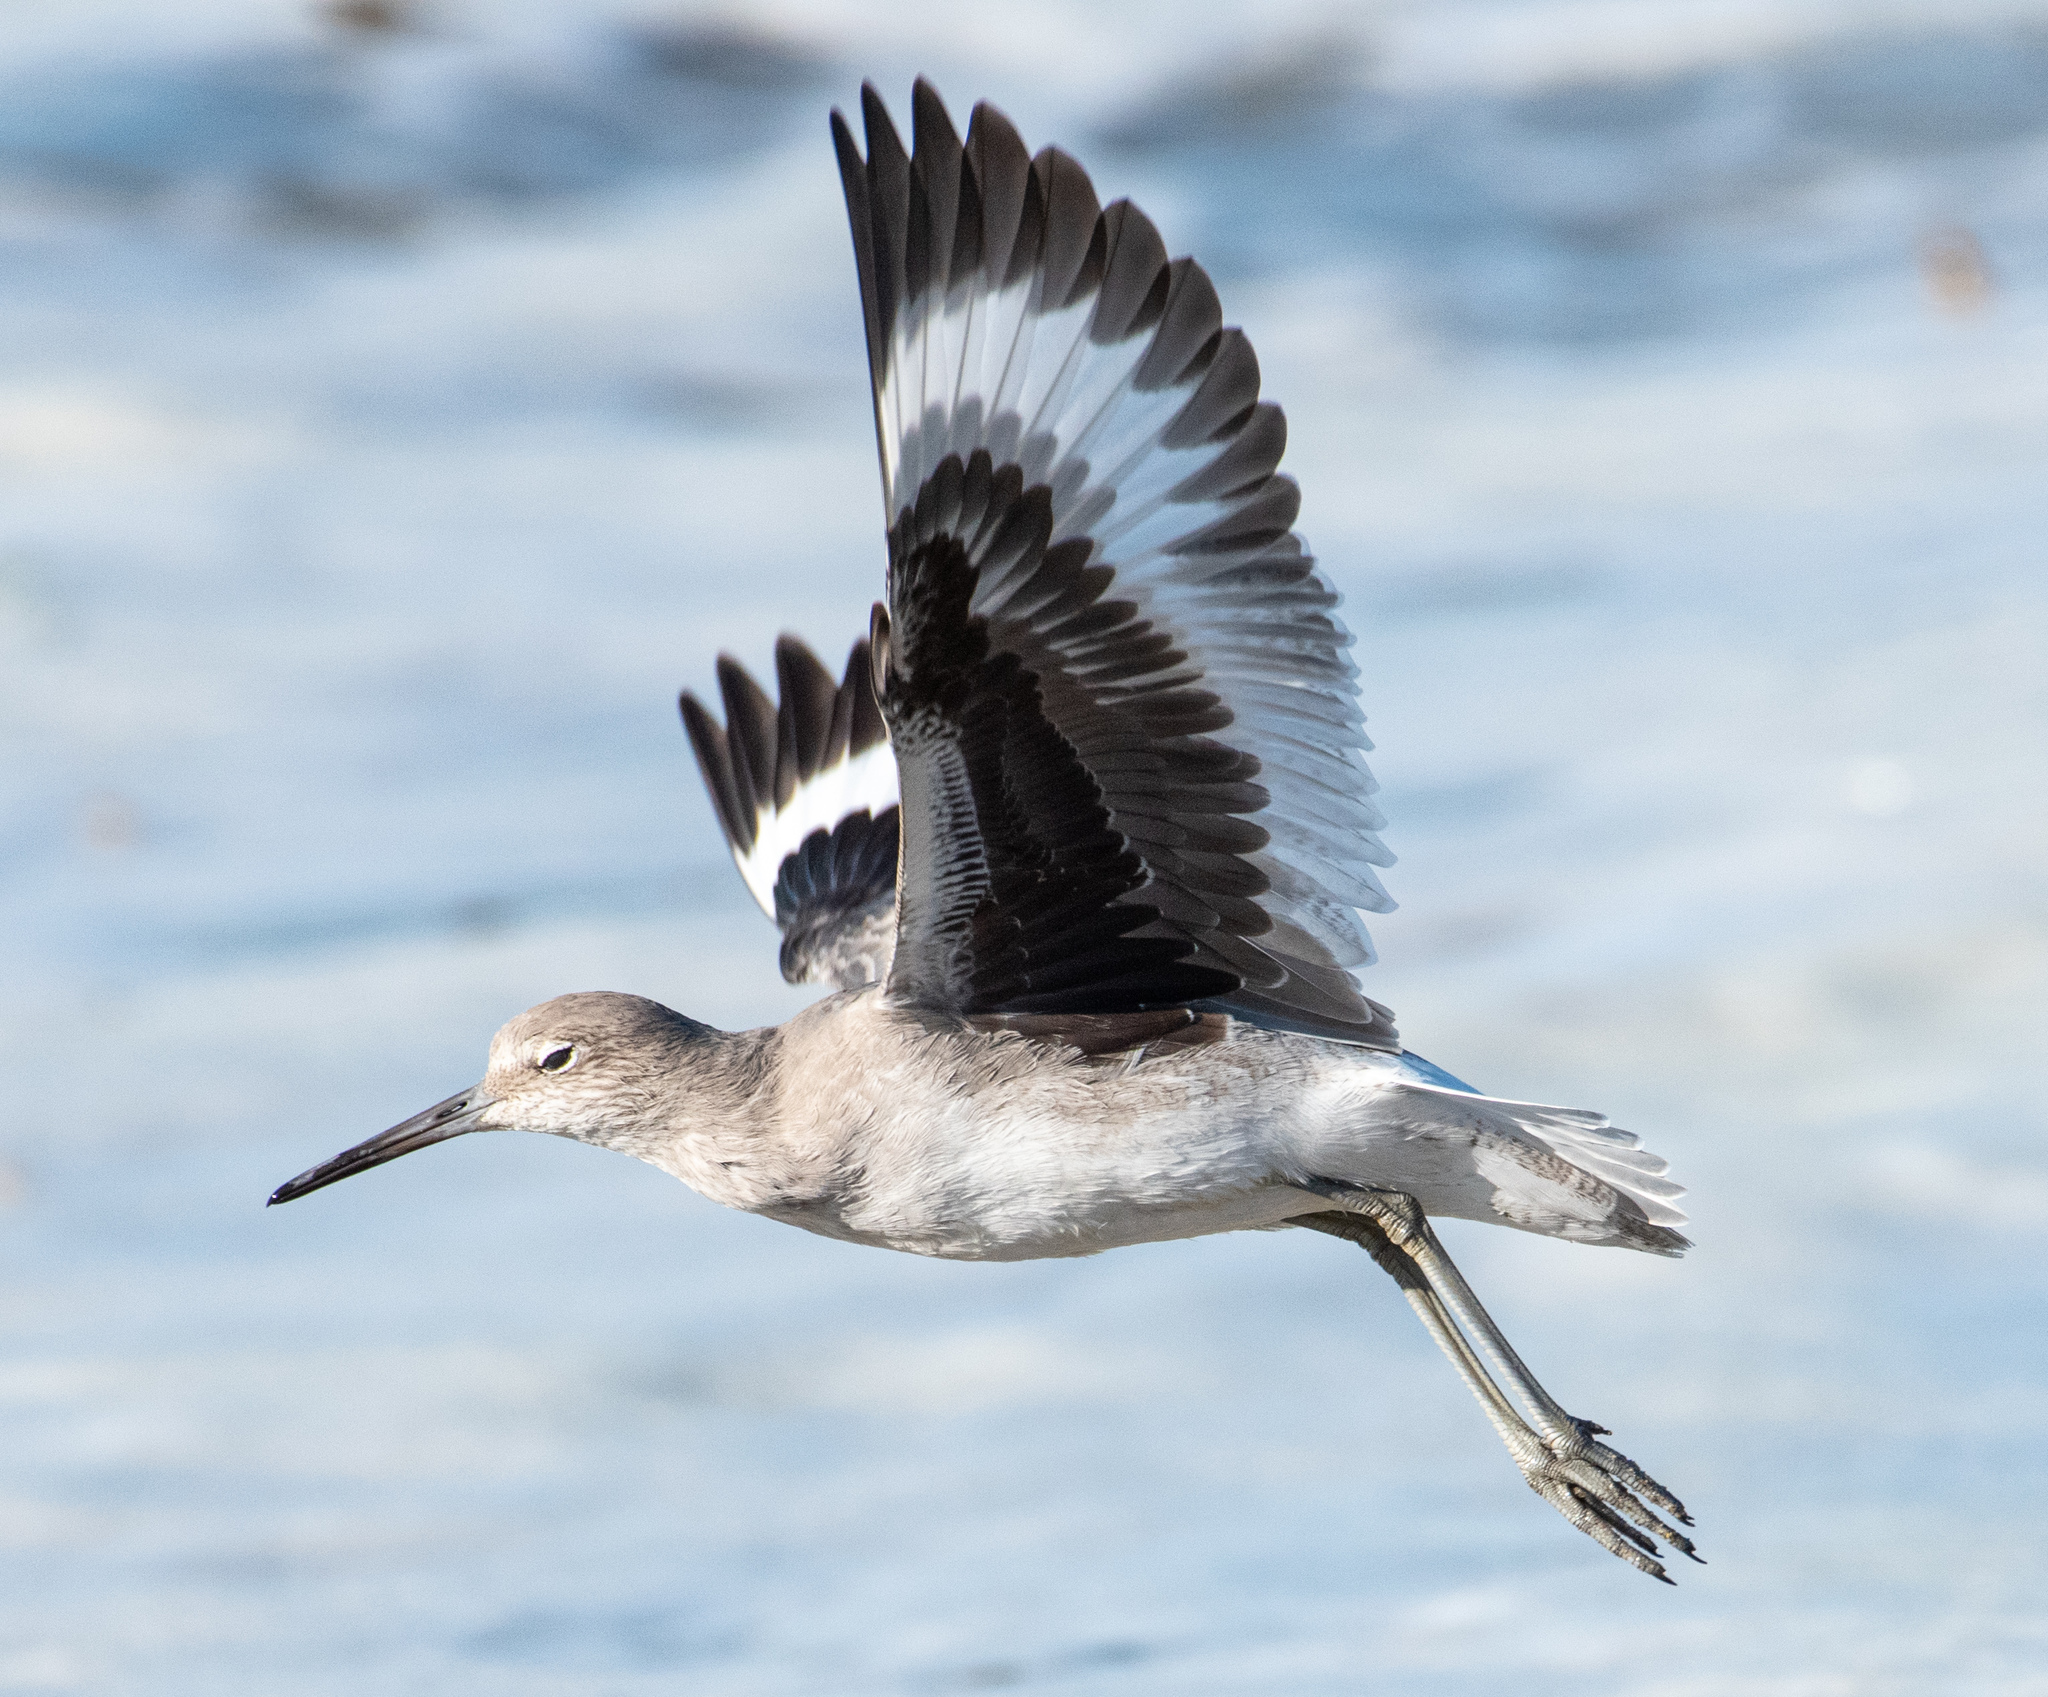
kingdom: Animalia
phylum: Chordata
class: Aves
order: Charadriiformes
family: Scolopacidae
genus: Tringa
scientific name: Tringa semipalmata
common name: Willet
